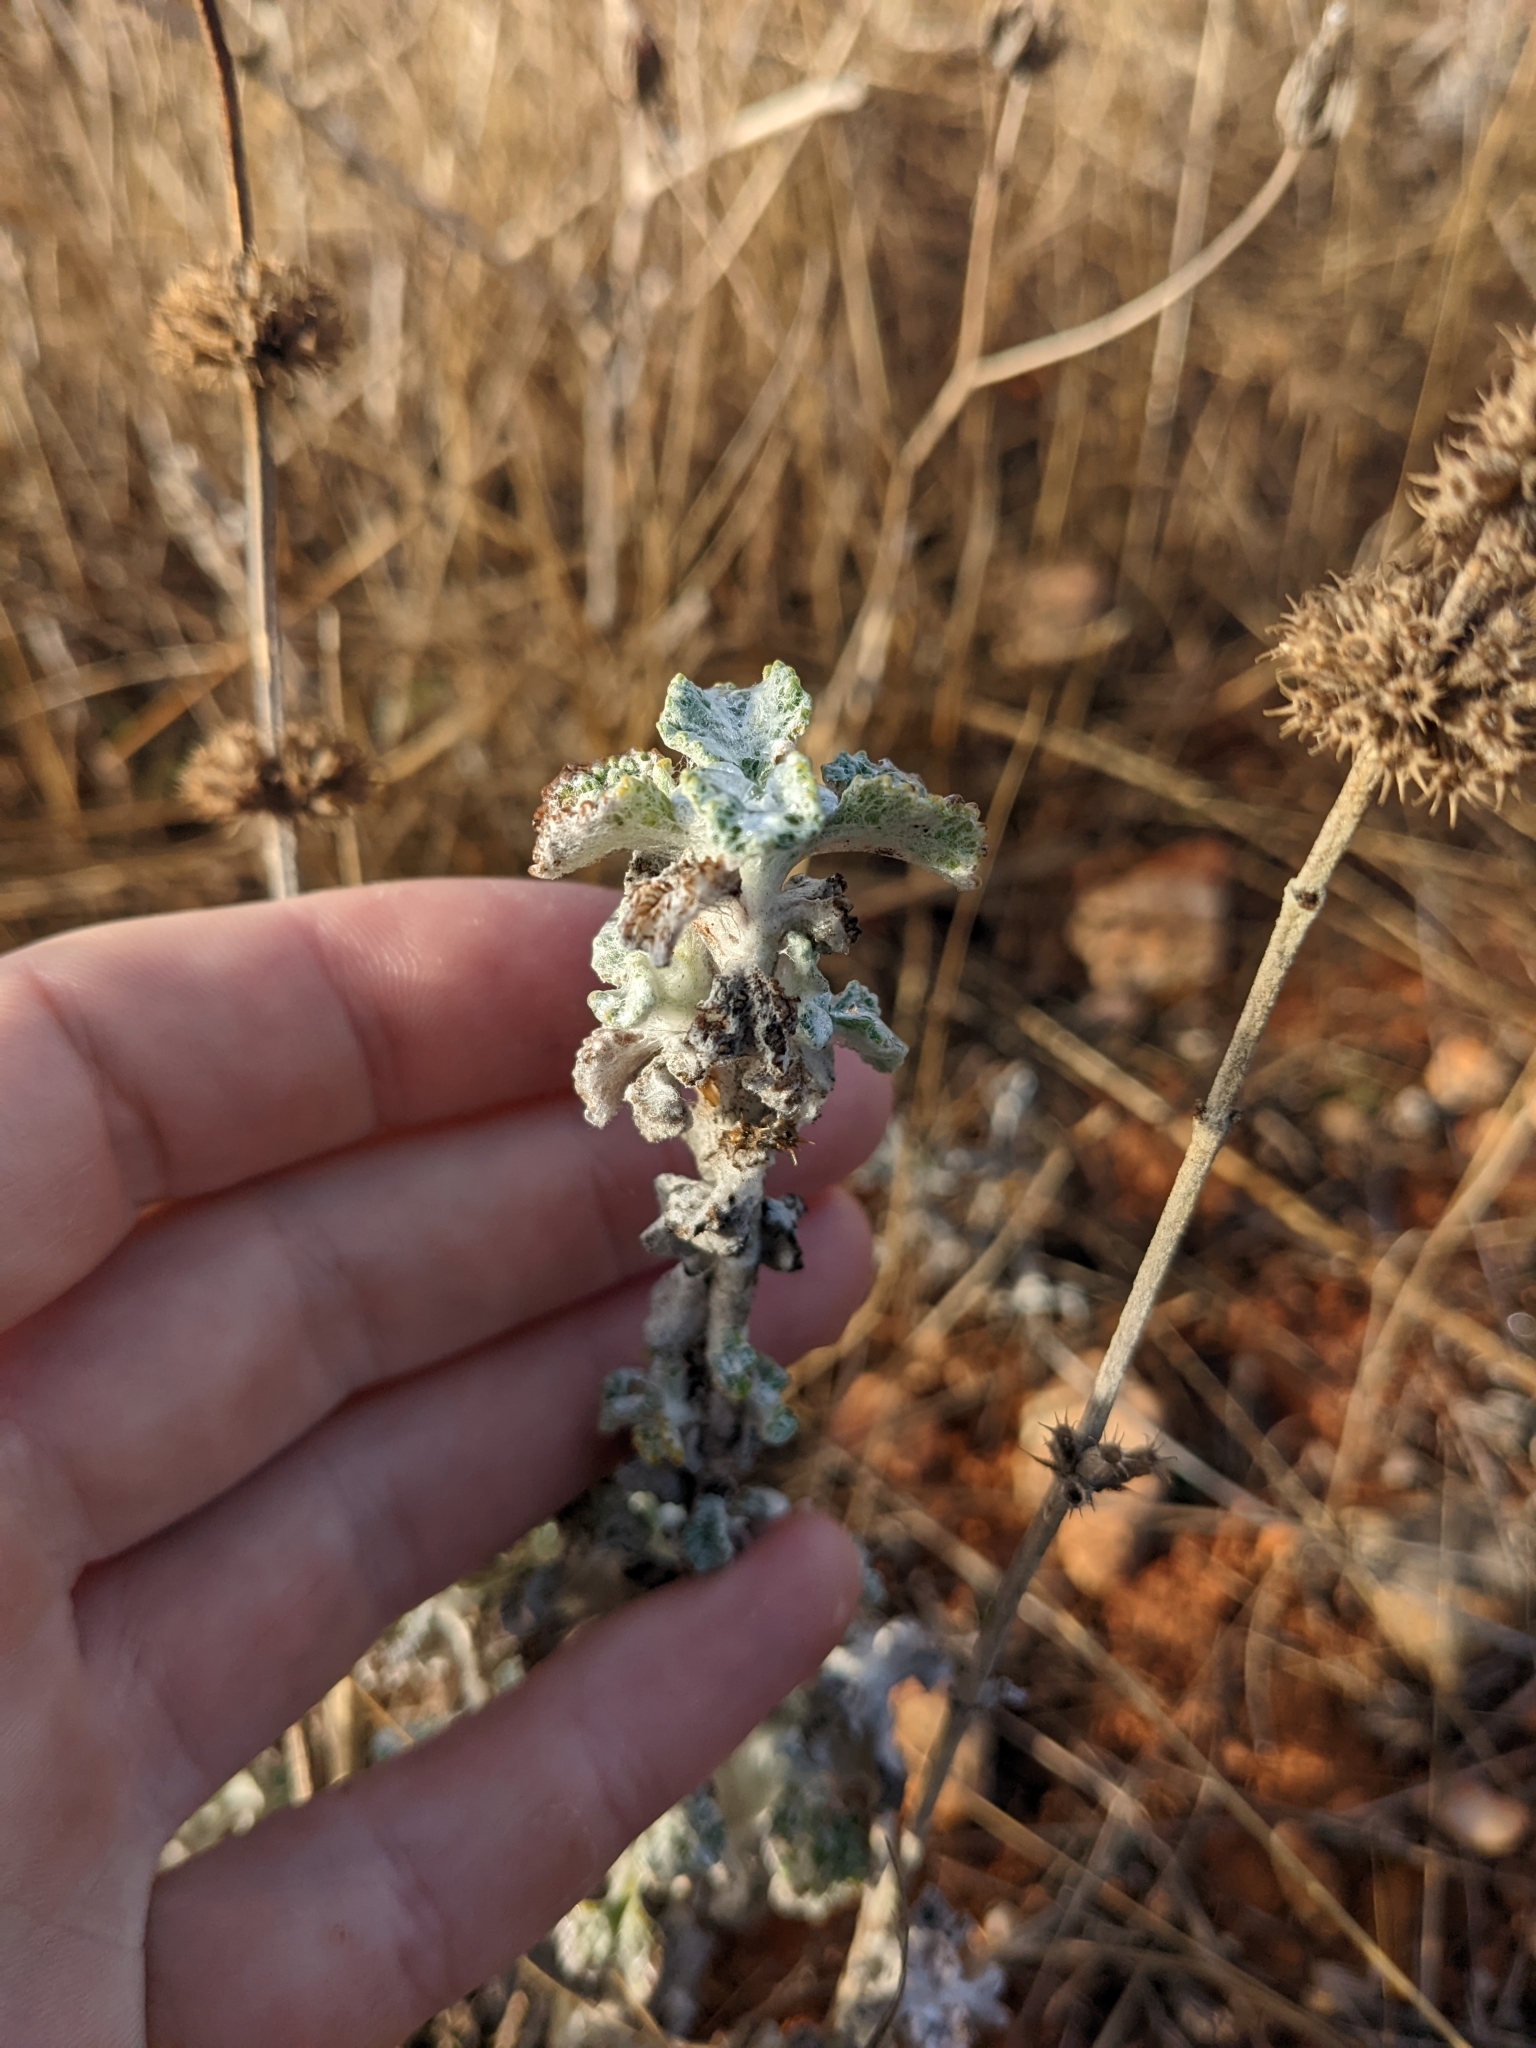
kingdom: Plantae
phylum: Tracheophyta
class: Magnoliopsida
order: Lamiales
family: Lamiaceae
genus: Marrubium
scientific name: Marrubium vulgare
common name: Horehound
